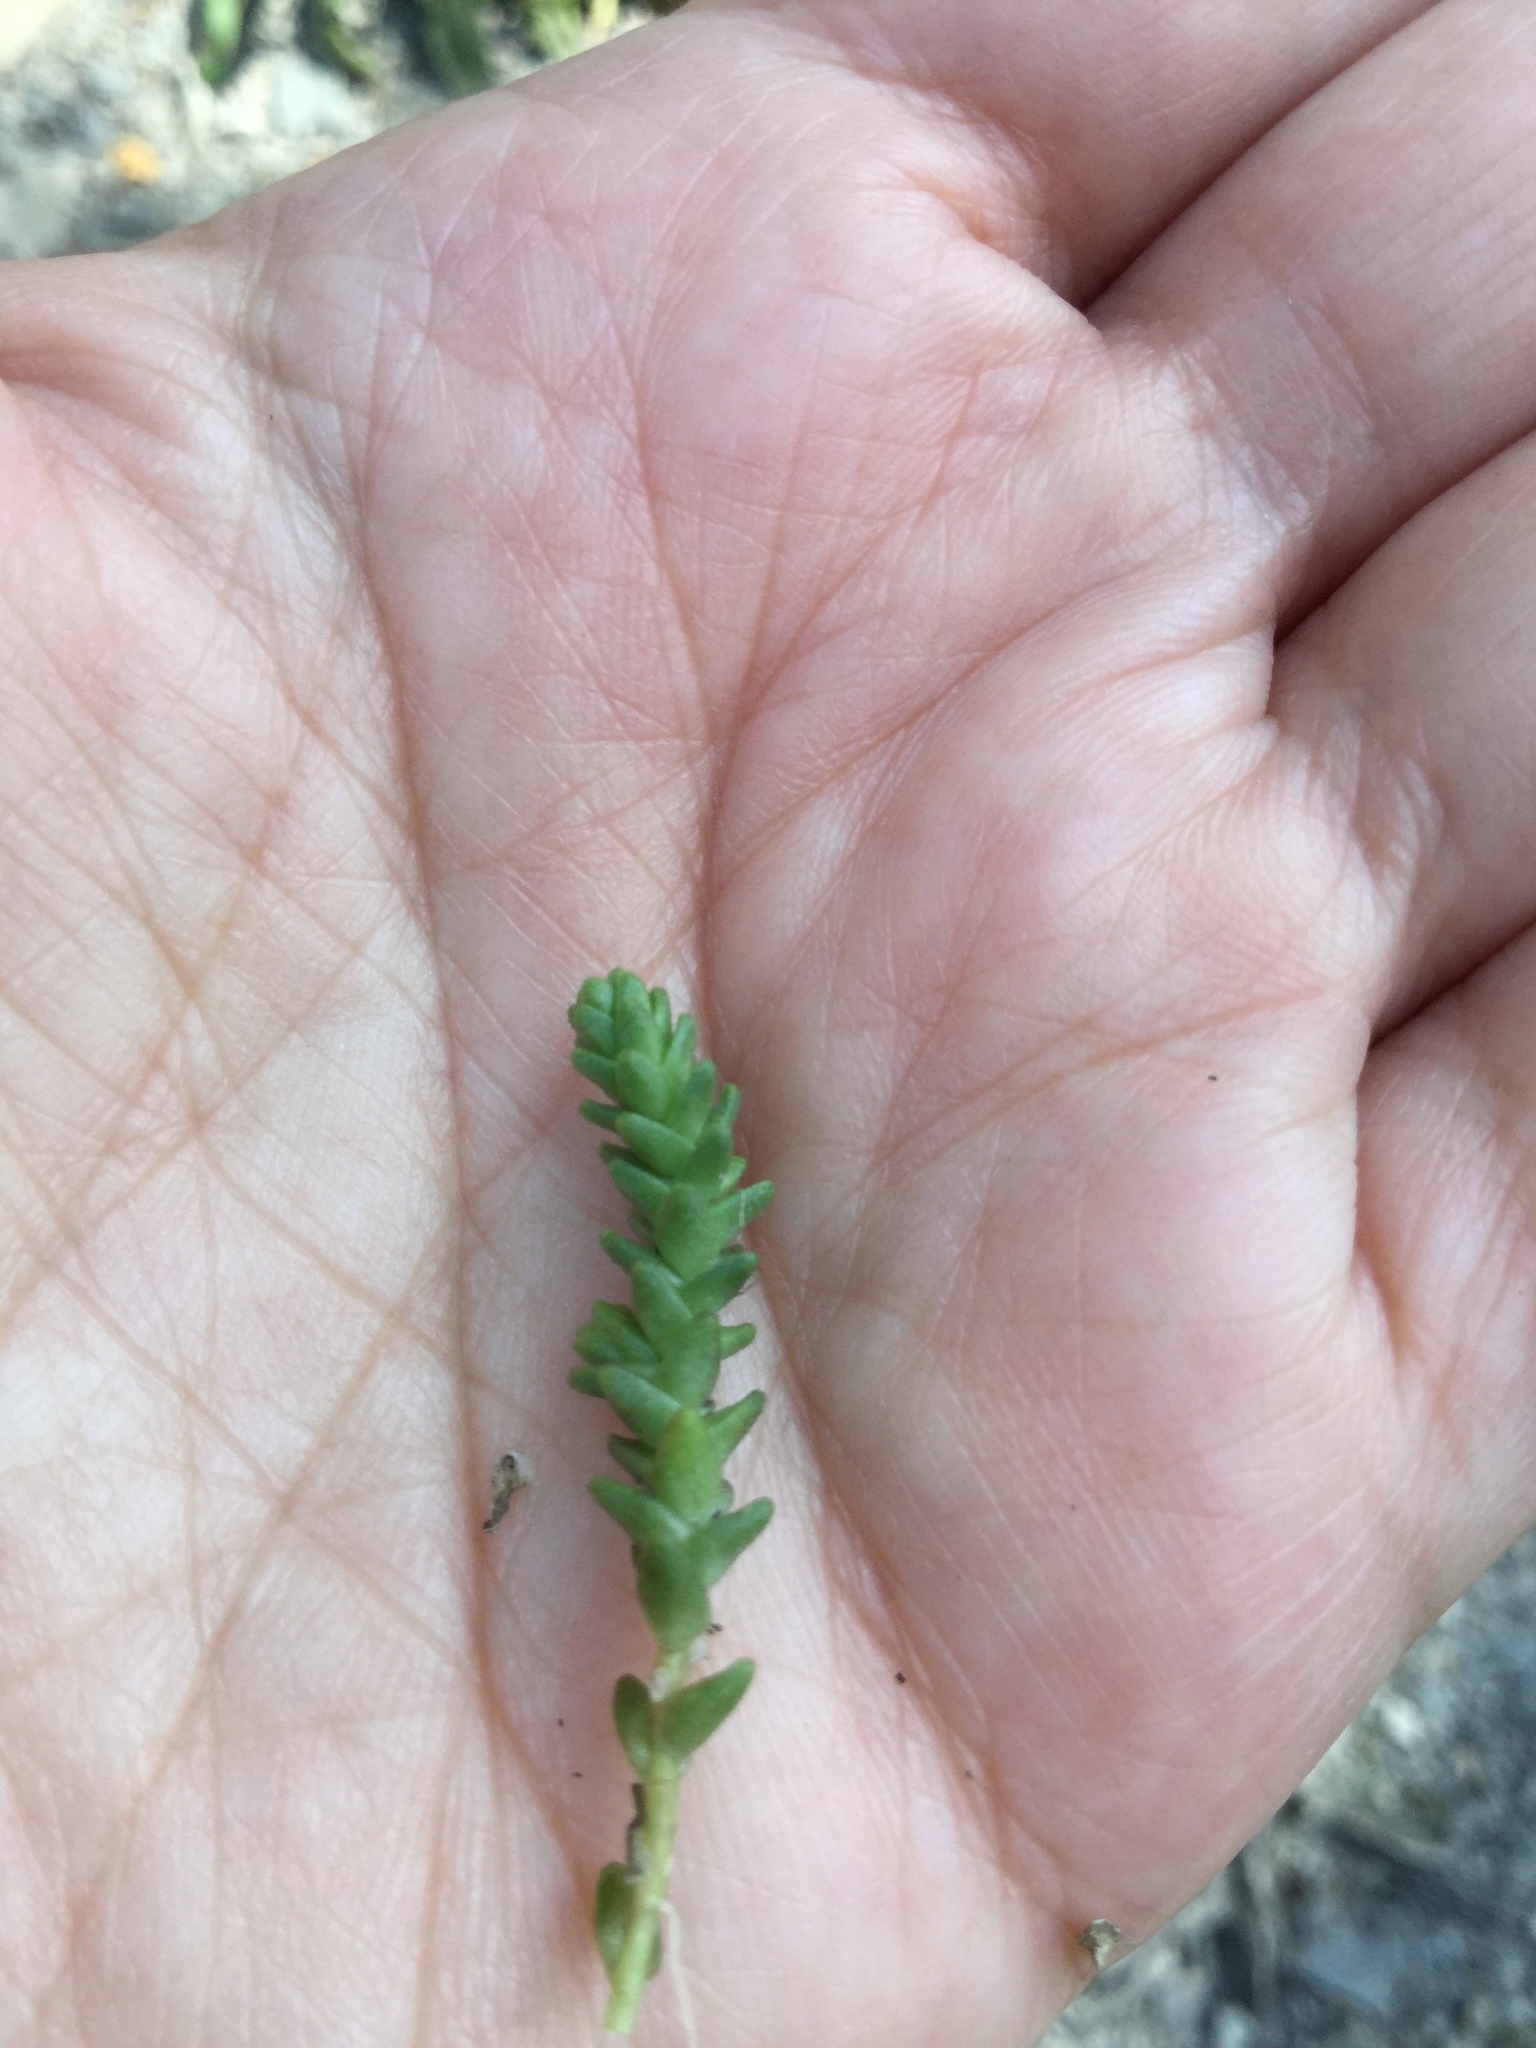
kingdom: Plantae
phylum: Tracheophyta
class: Magnoliopsida
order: Saxifragales
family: Crassulaceae
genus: Sedum
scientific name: Sedum acre
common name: Biting stonecrop
